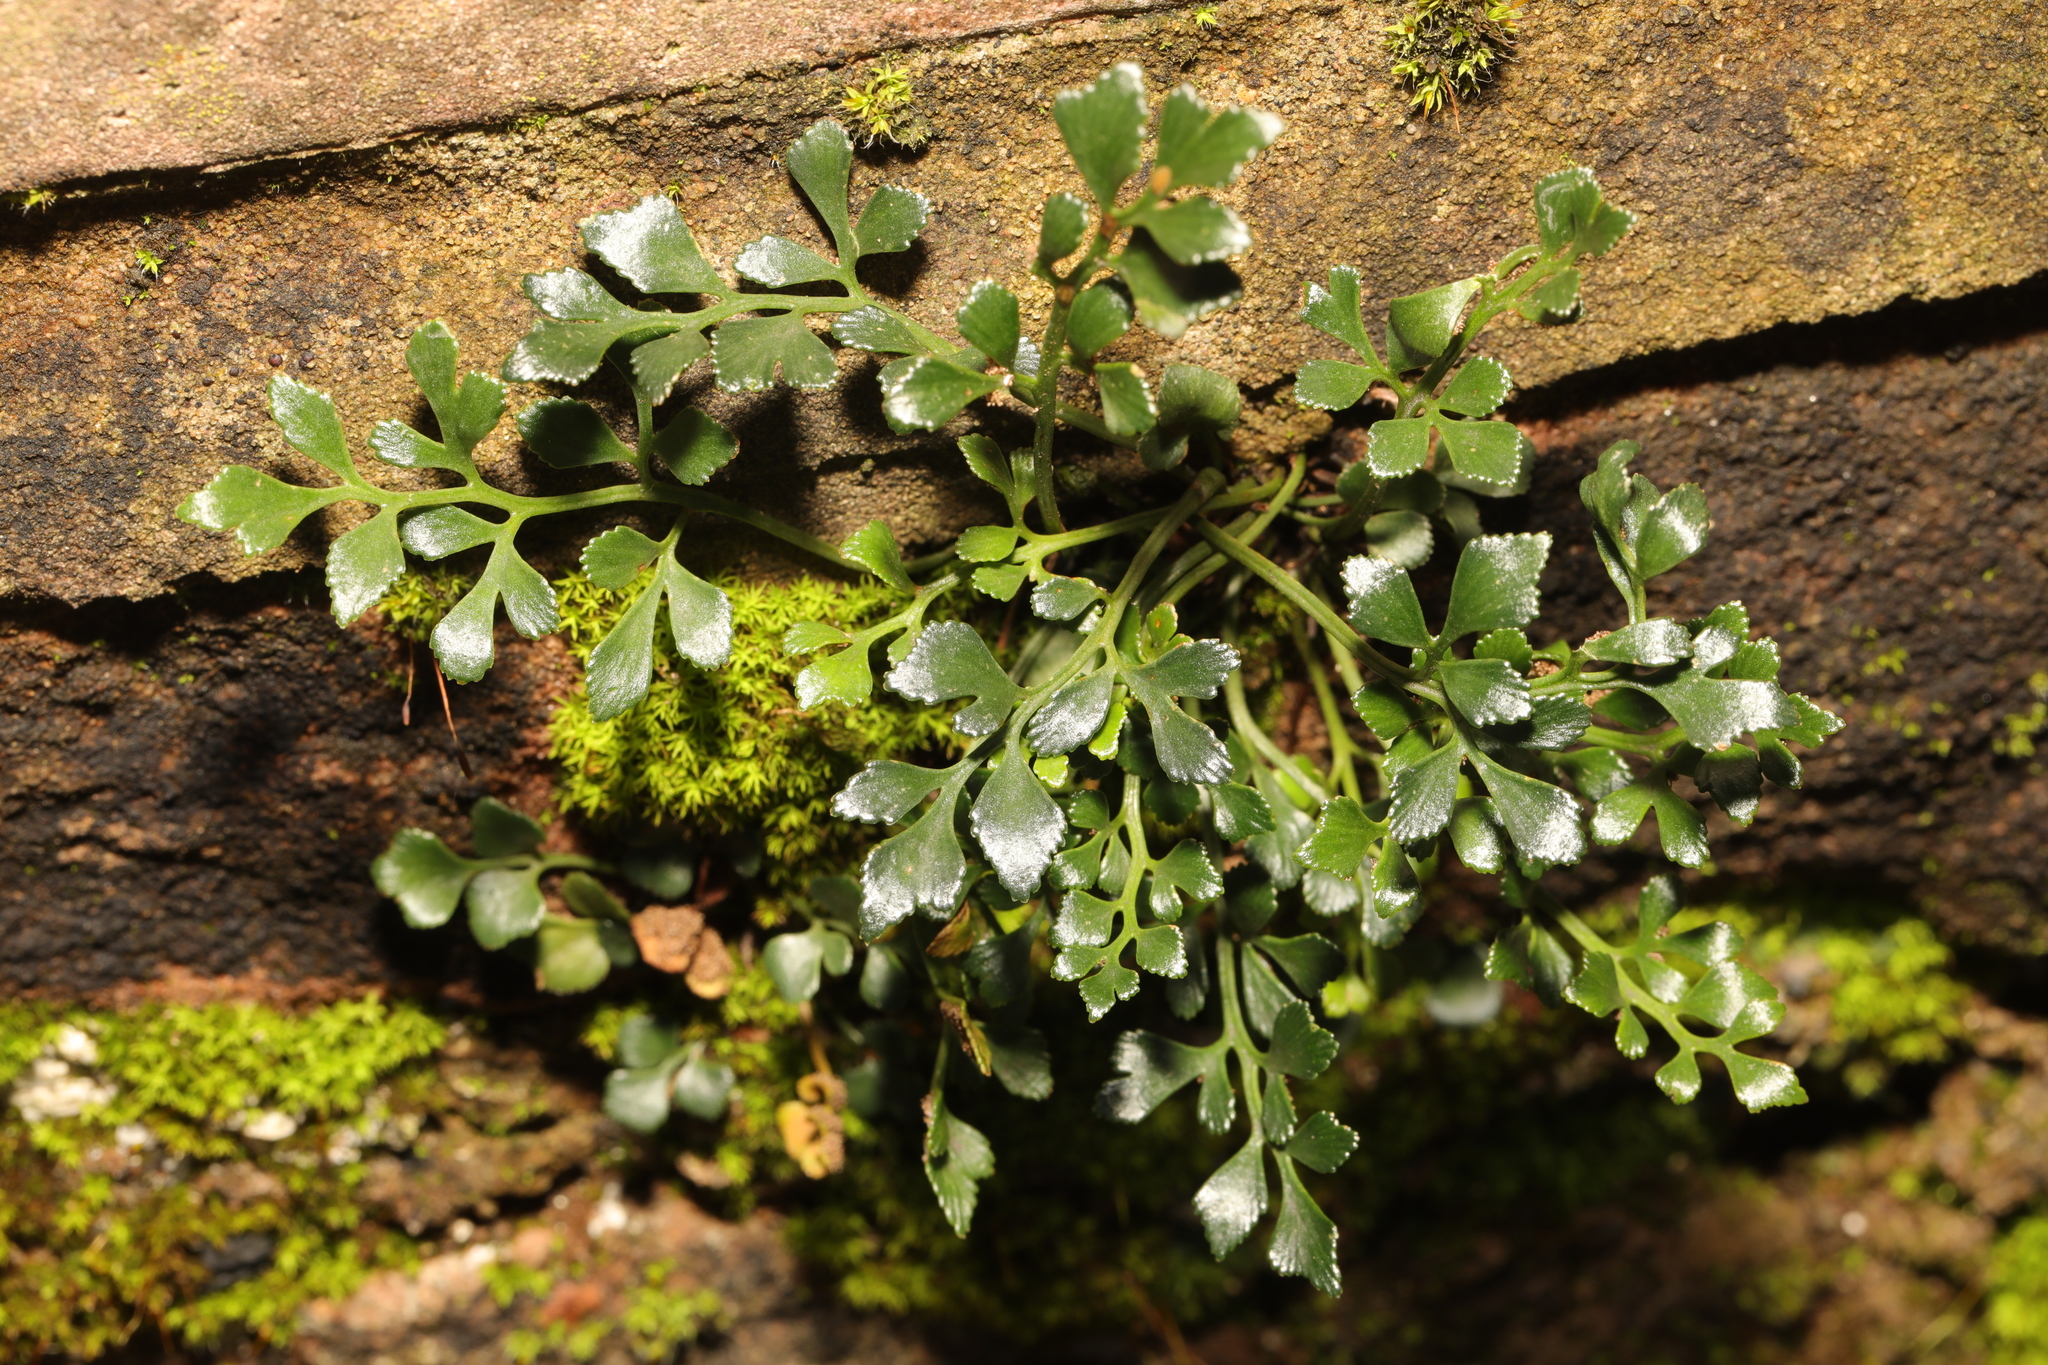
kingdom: Plantae
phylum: Tracheophyta
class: Polypodiopsida
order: Polypodiales
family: Aspleniaceae
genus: Asplenium
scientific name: Asplenium ruta-muraria
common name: Wall-rue
